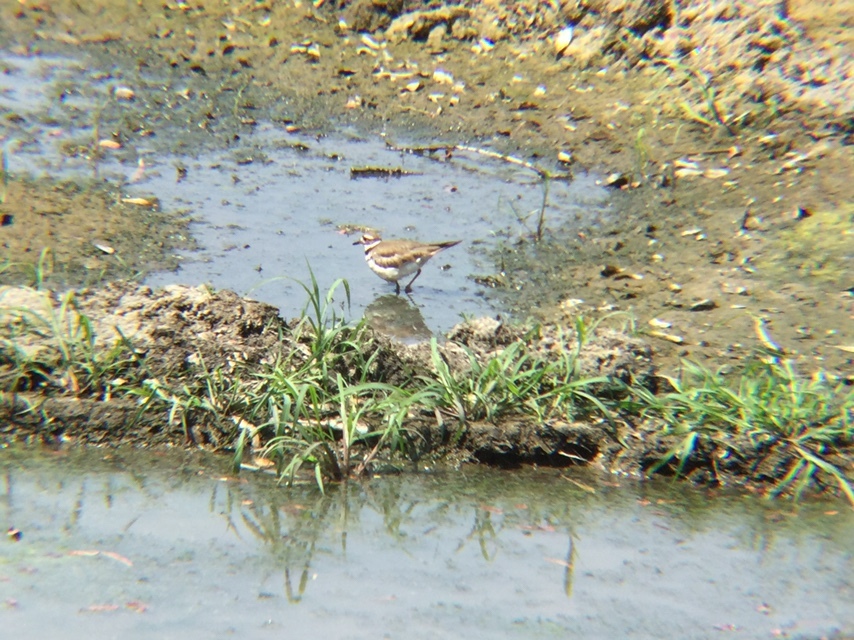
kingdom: Animalia
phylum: Chordata
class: Aves
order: Charadriiformes
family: Charadriidae
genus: Charadrius
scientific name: Charadrius vociferus
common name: Killdeer
